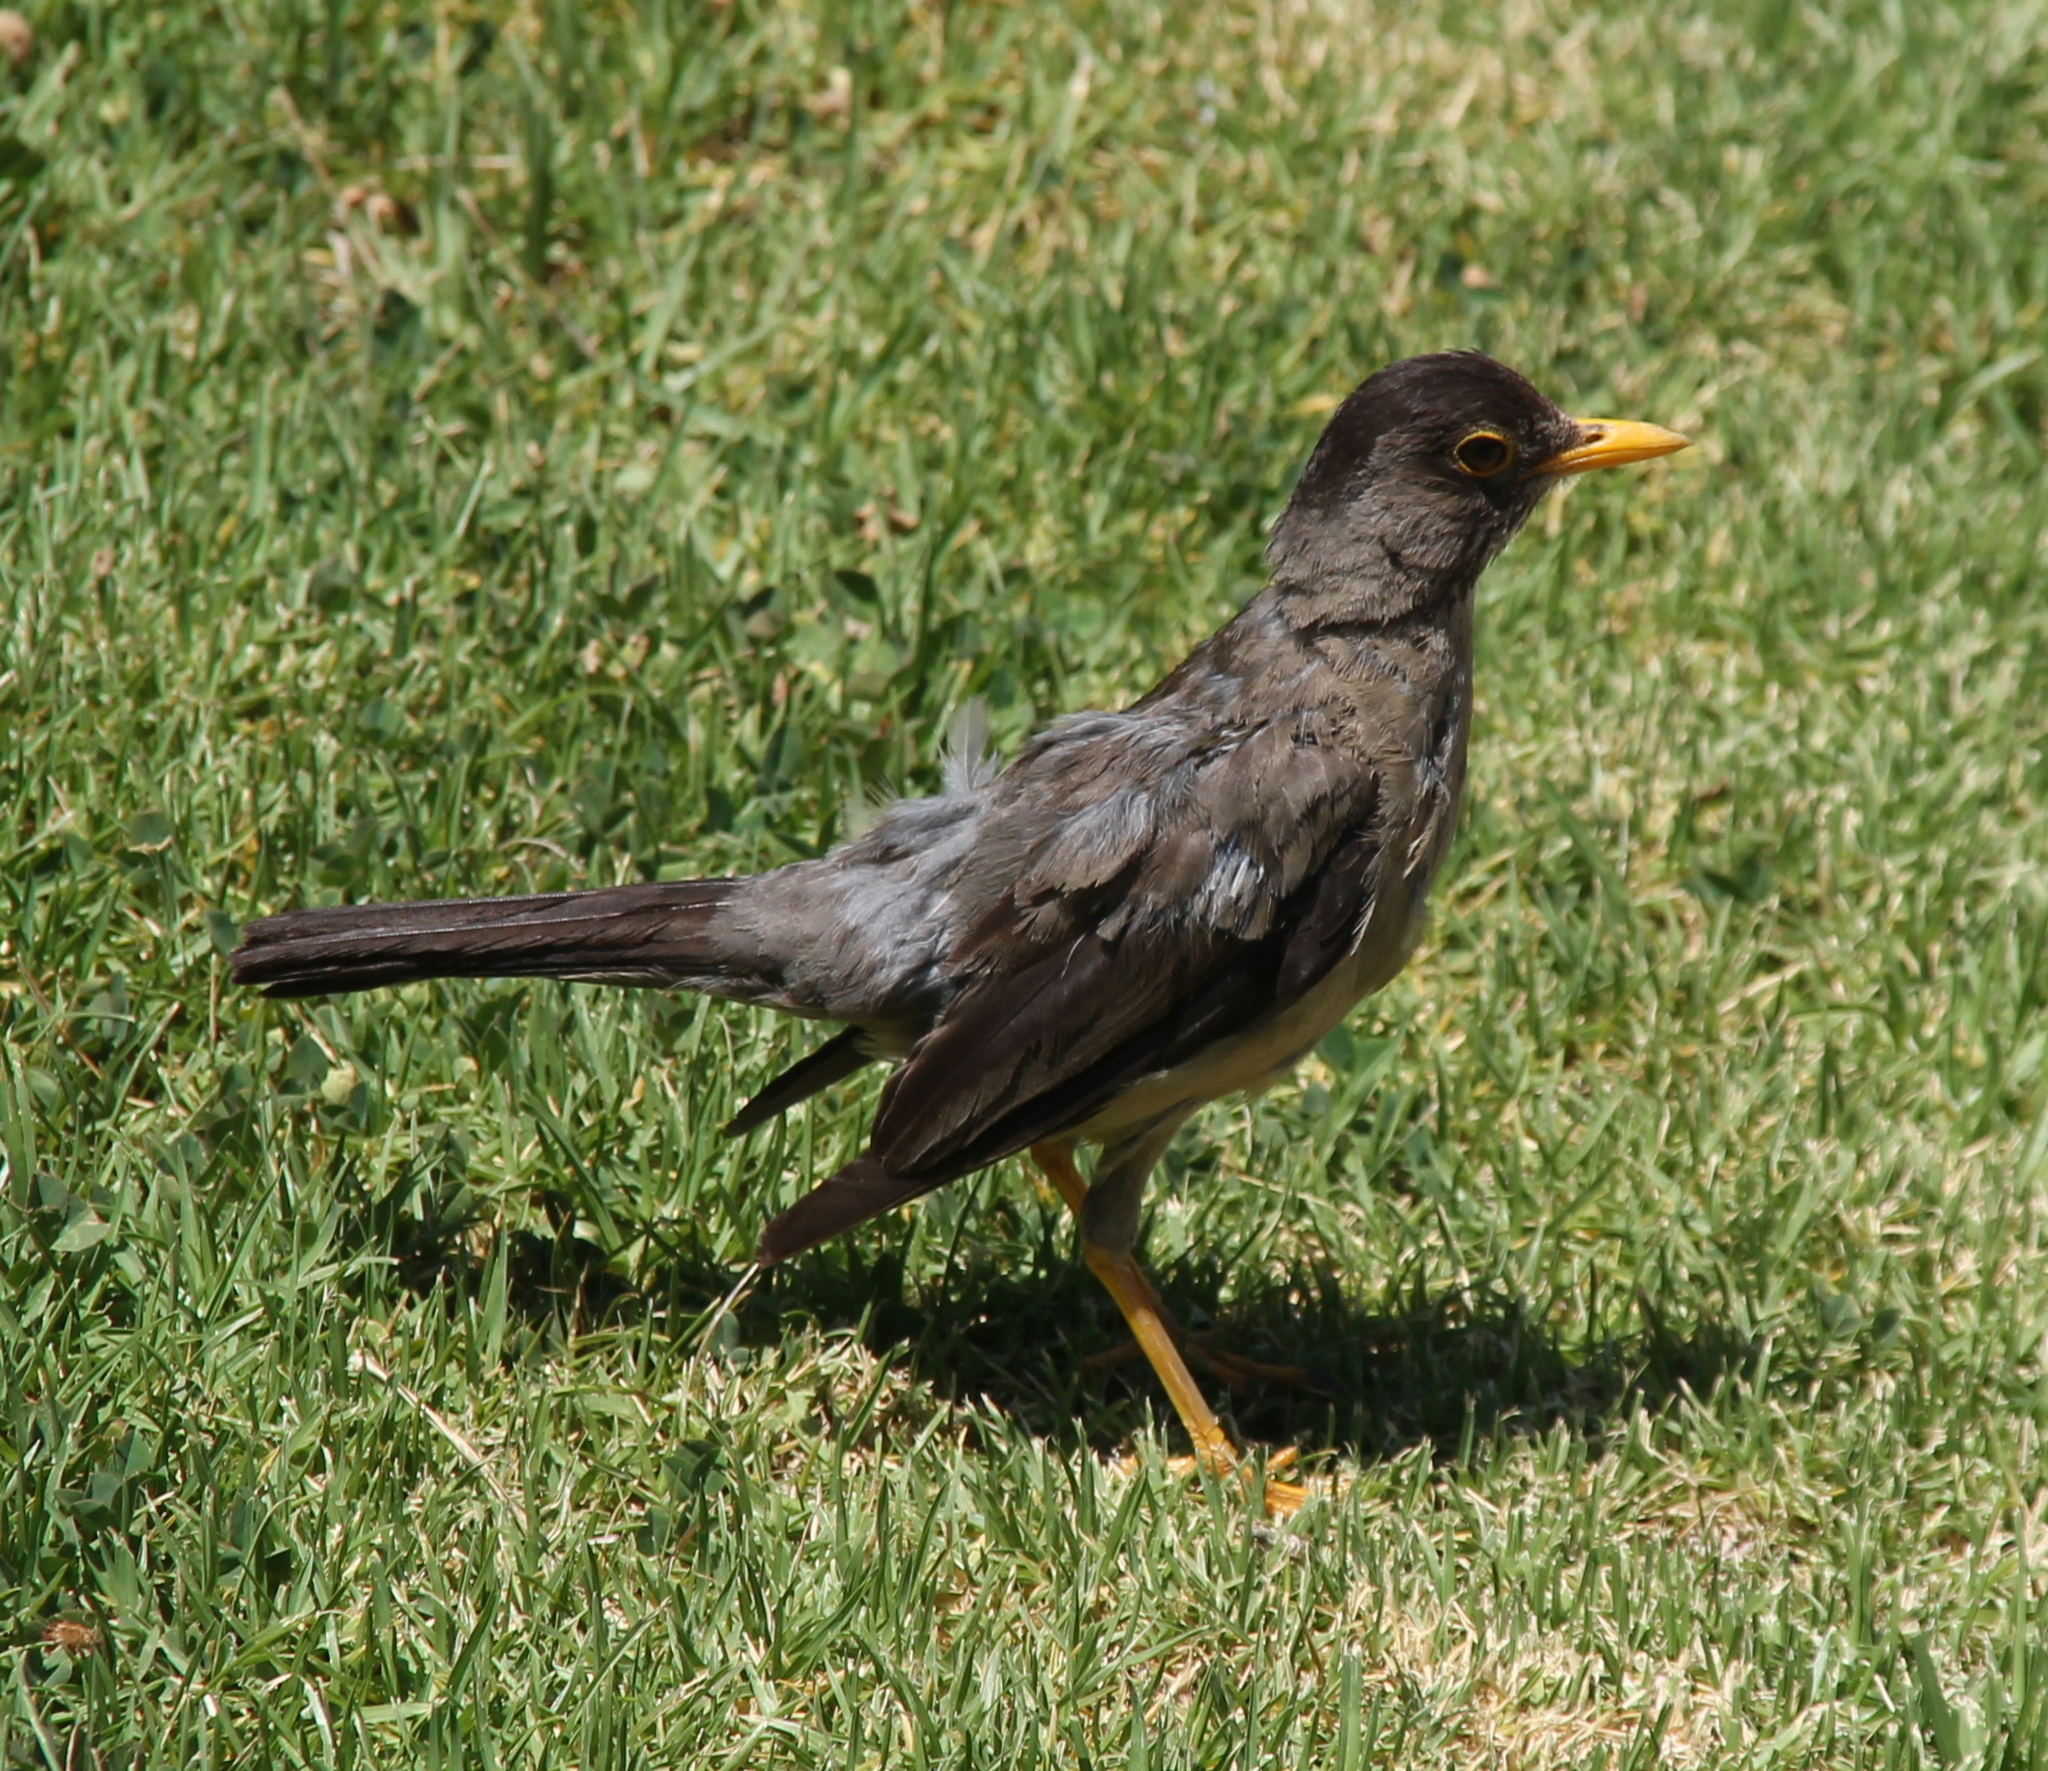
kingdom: Animalia
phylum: Chordata
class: Aves
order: Passeriformes
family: Turdidae
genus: Turdus
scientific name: Turdus falcklandii
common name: Austral thrush
